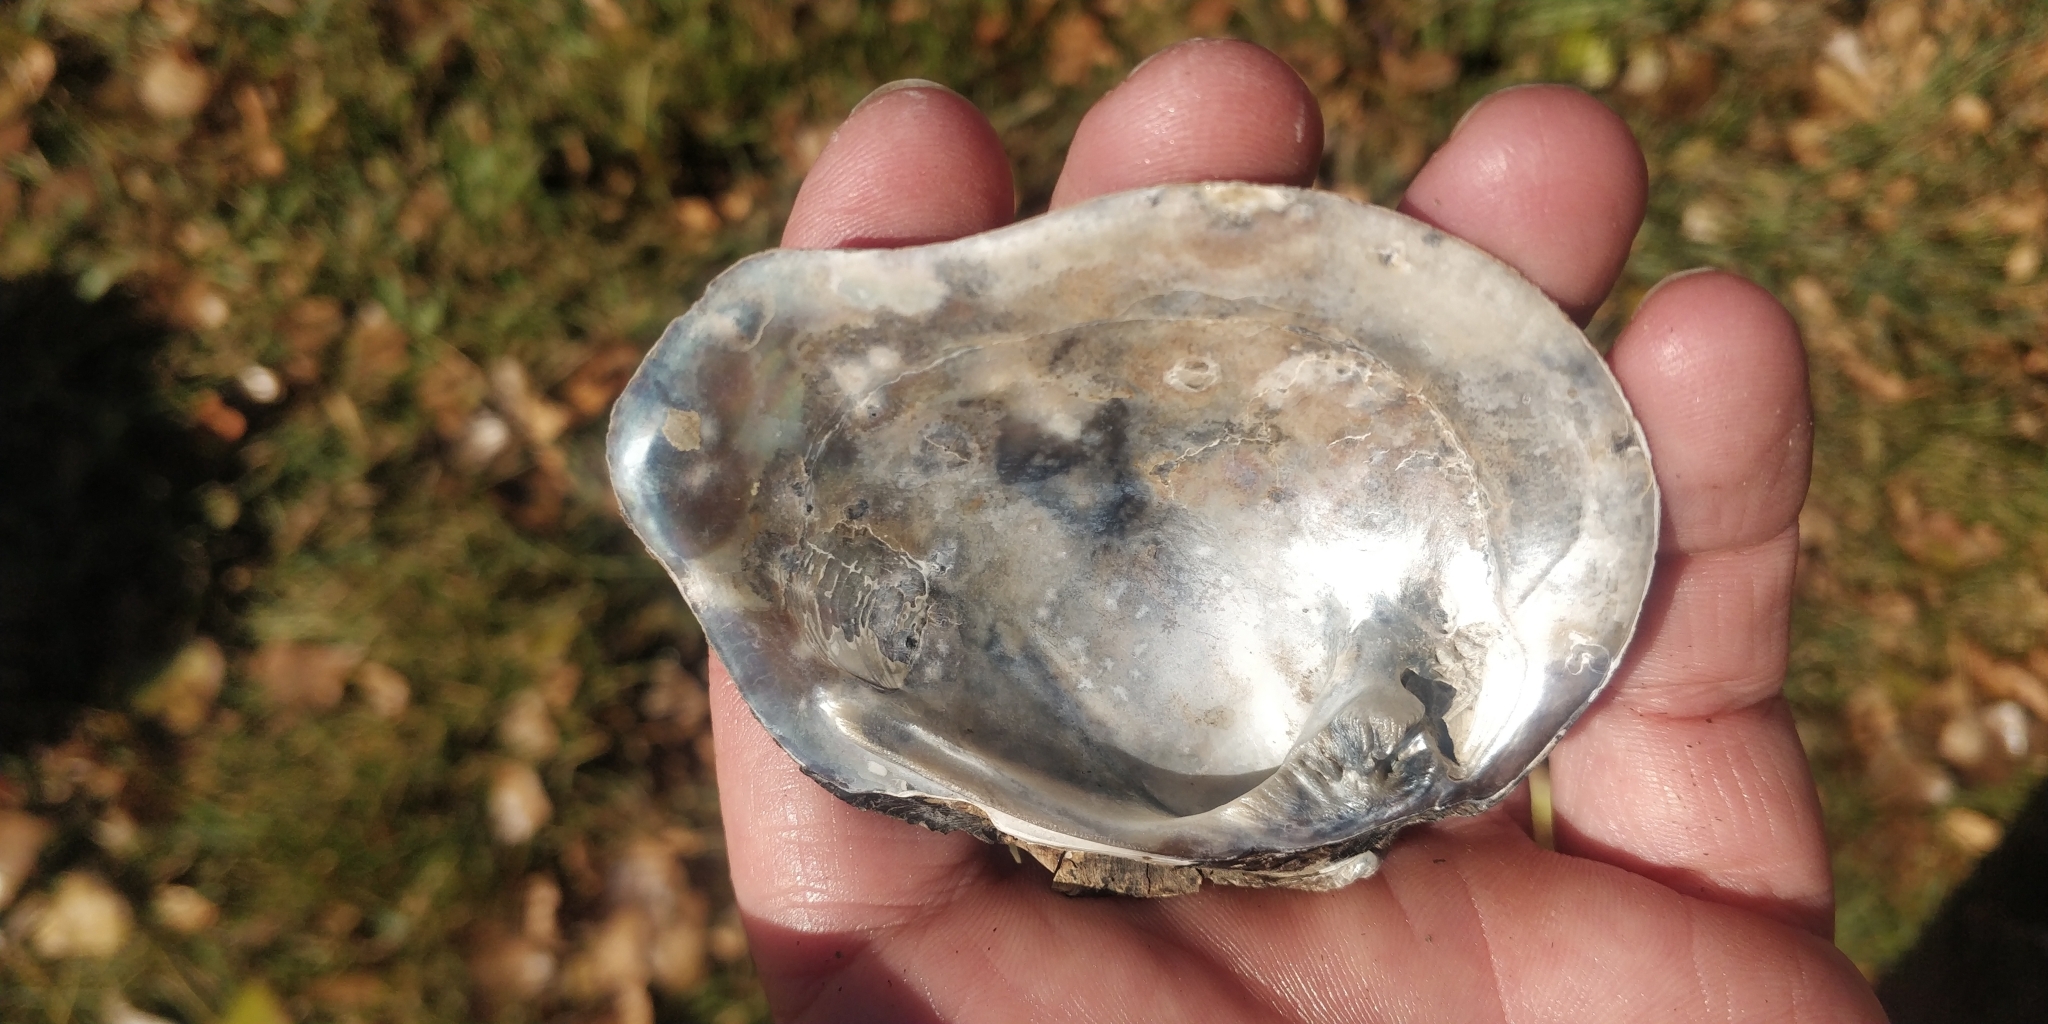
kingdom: Animalia
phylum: Mollusca
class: Bivalvia
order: Unionida
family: Unionidae
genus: Tritogonia
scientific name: Tritogonia nobilis
